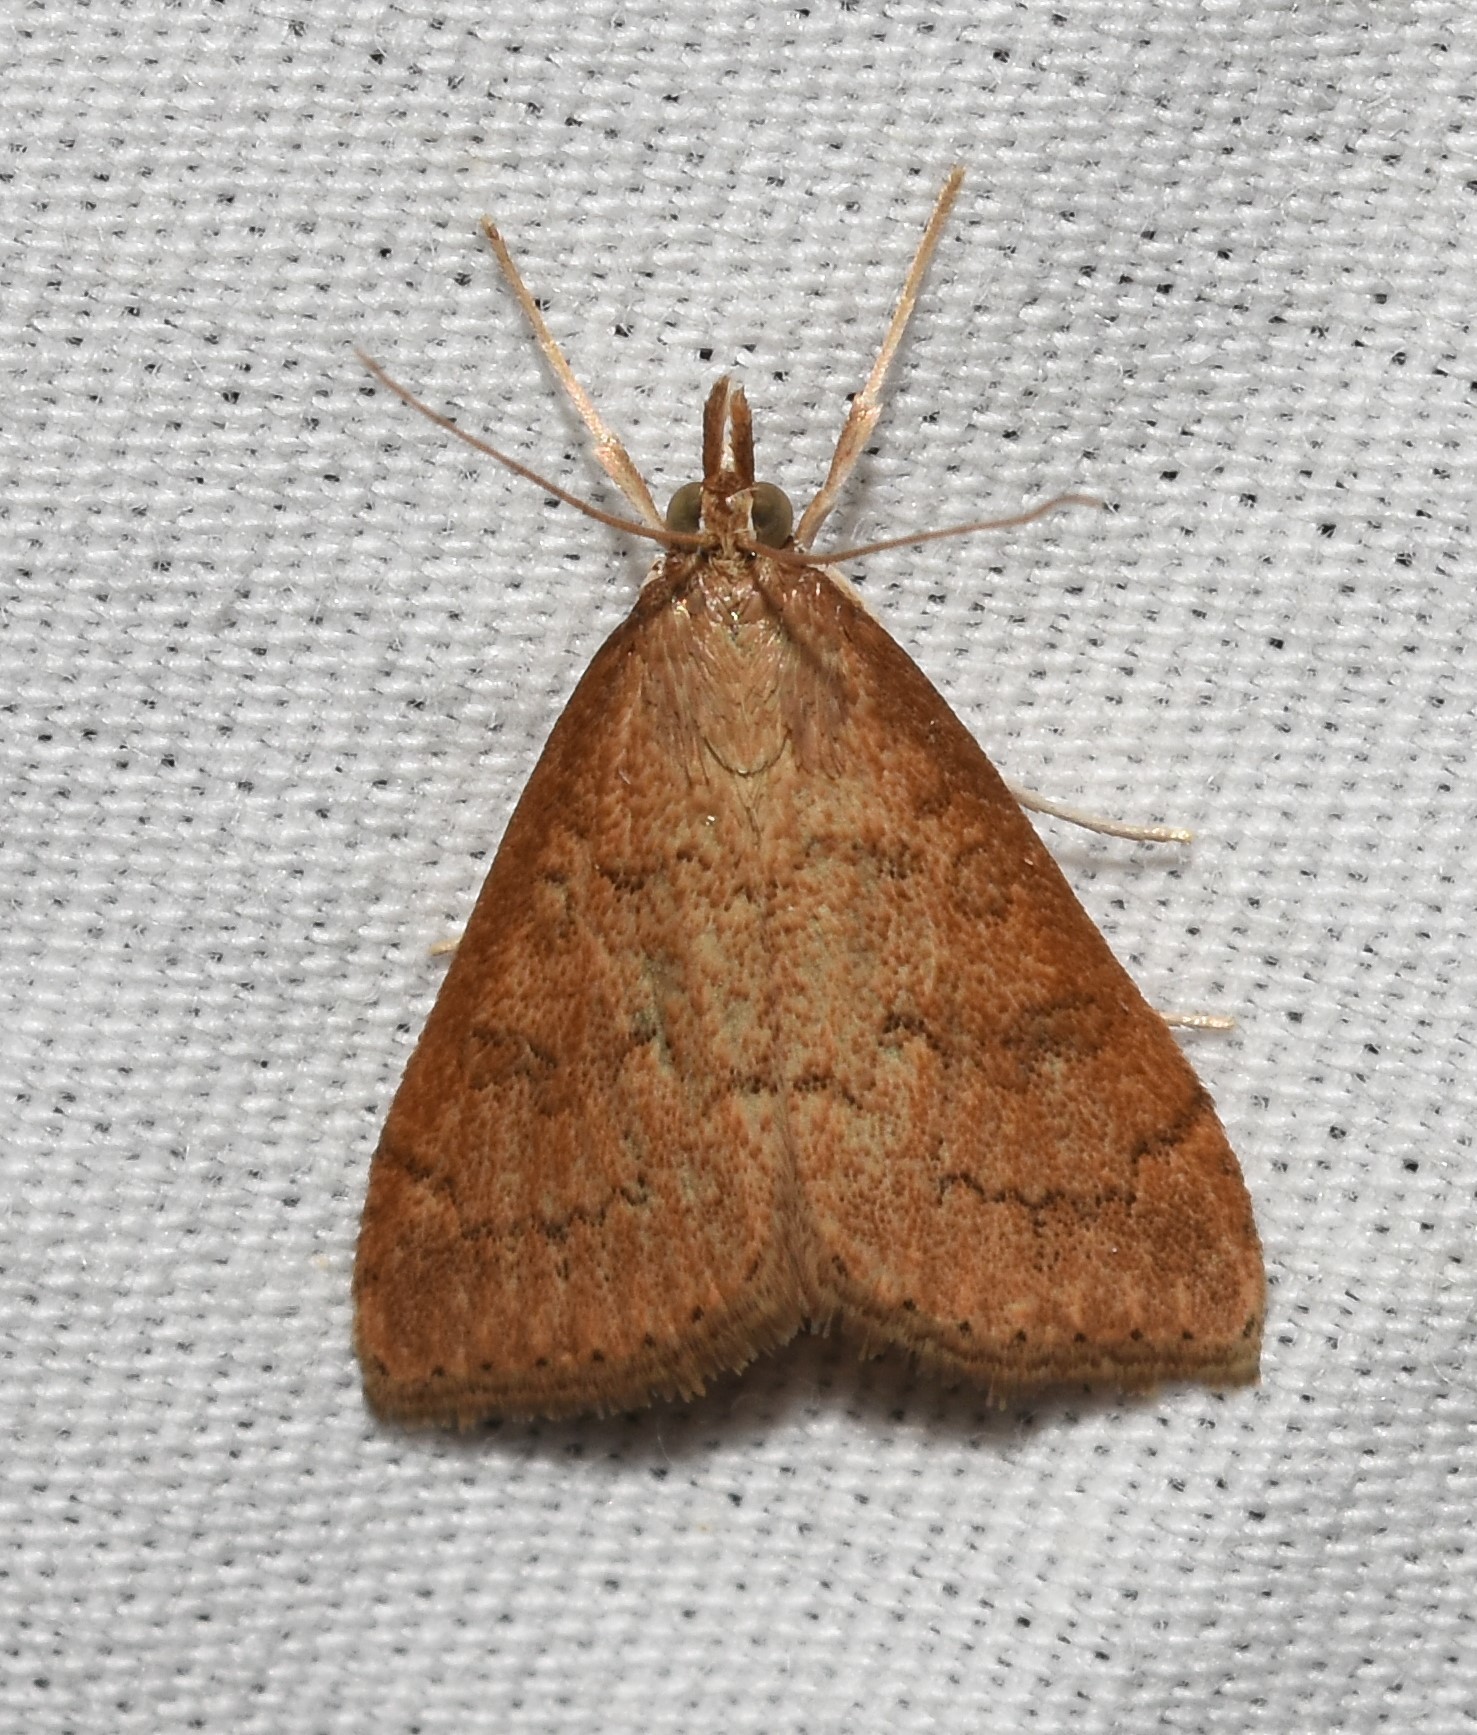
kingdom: Animalia
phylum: Arthropoda
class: Insecta
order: Lepidoptera
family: Crambidae
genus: Udea
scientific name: Udea rubigalis
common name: Celery leaftier moth
